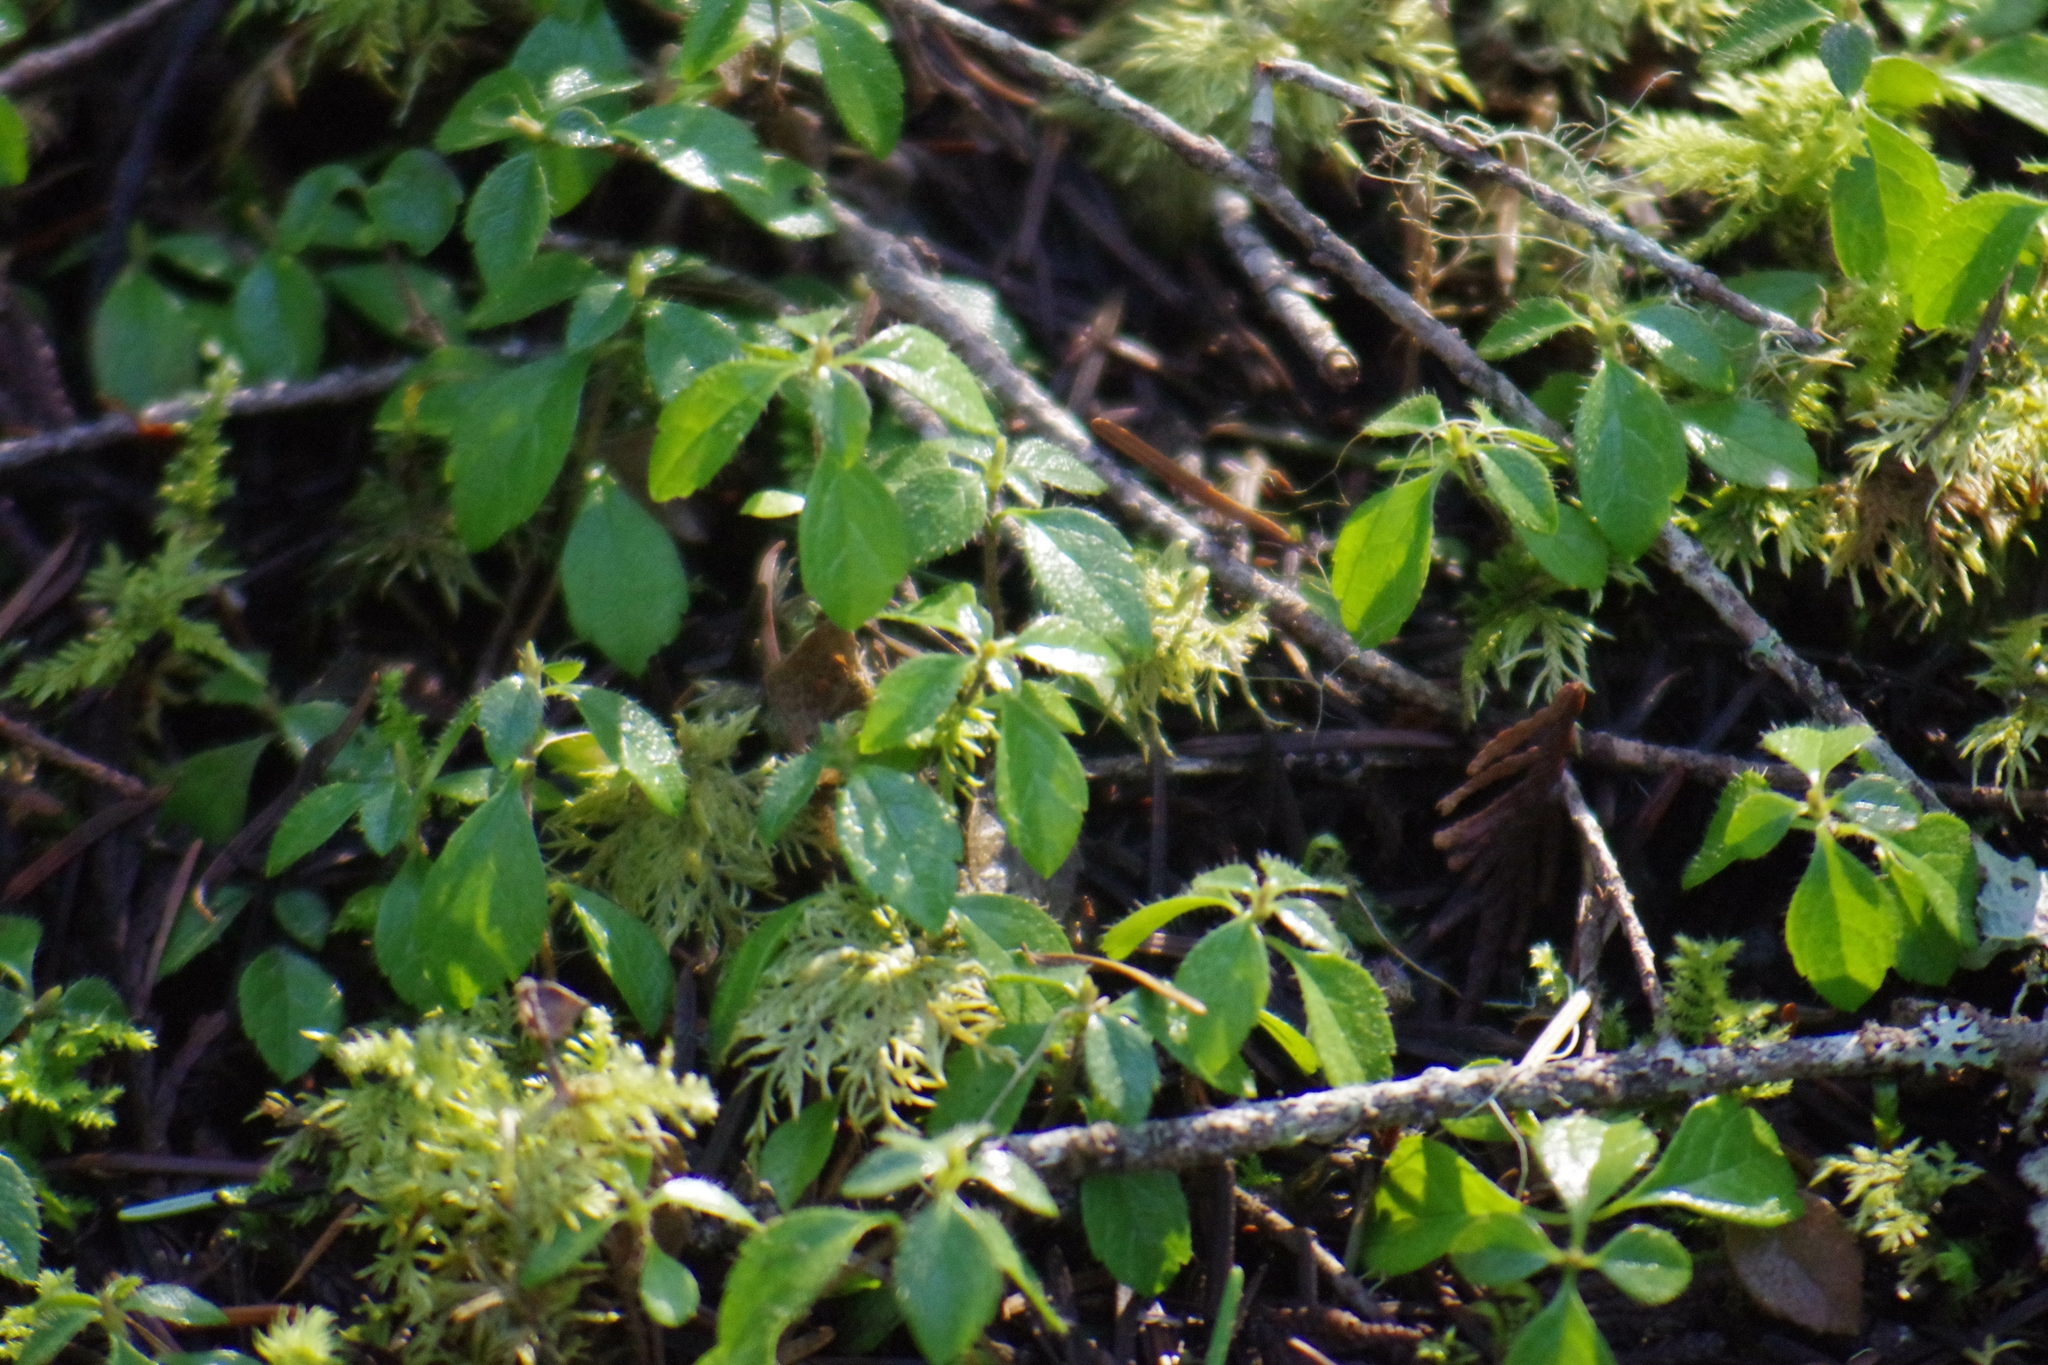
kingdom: Plantae
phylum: Tracheophyta
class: Magnoliopsida
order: Dipsacales
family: Caprifoliaceae
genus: Linnaea
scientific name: Linnaea borealis
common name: Twinflower
